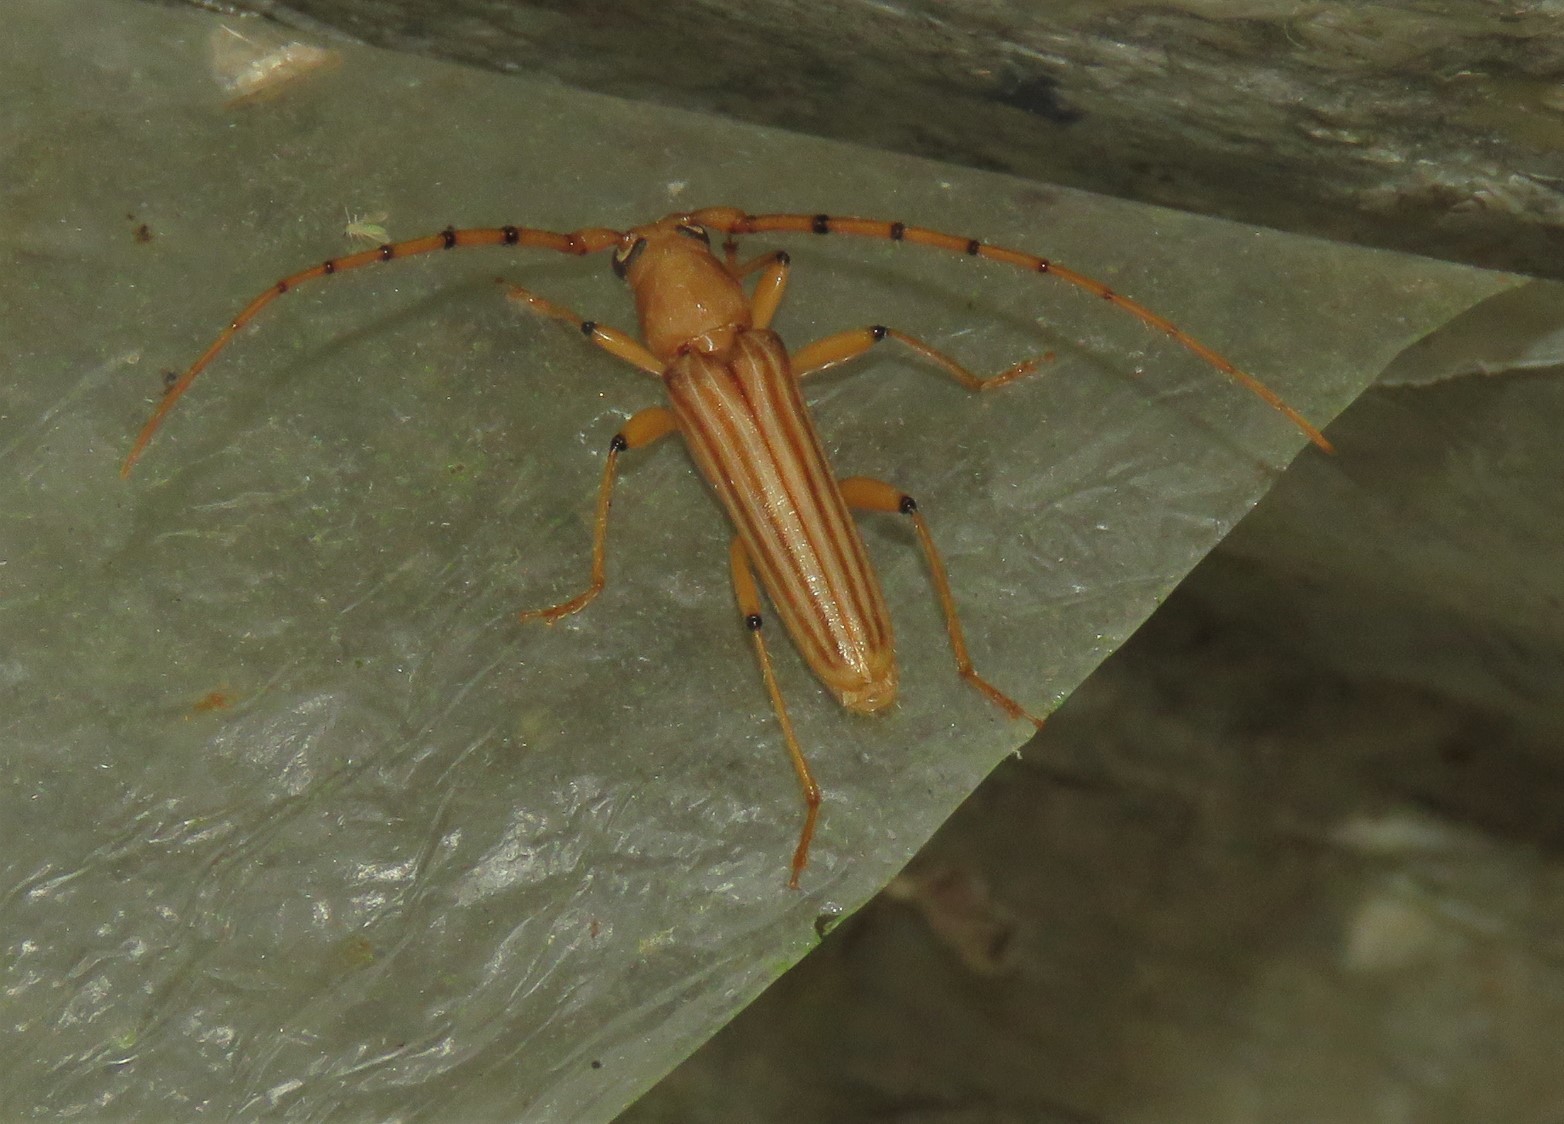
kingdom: Animalia
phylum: Arthropoda
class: Insecta
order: Coleoptera
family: Cerambycidae
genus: Malacopterus
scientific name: Malacopterus tenellus
